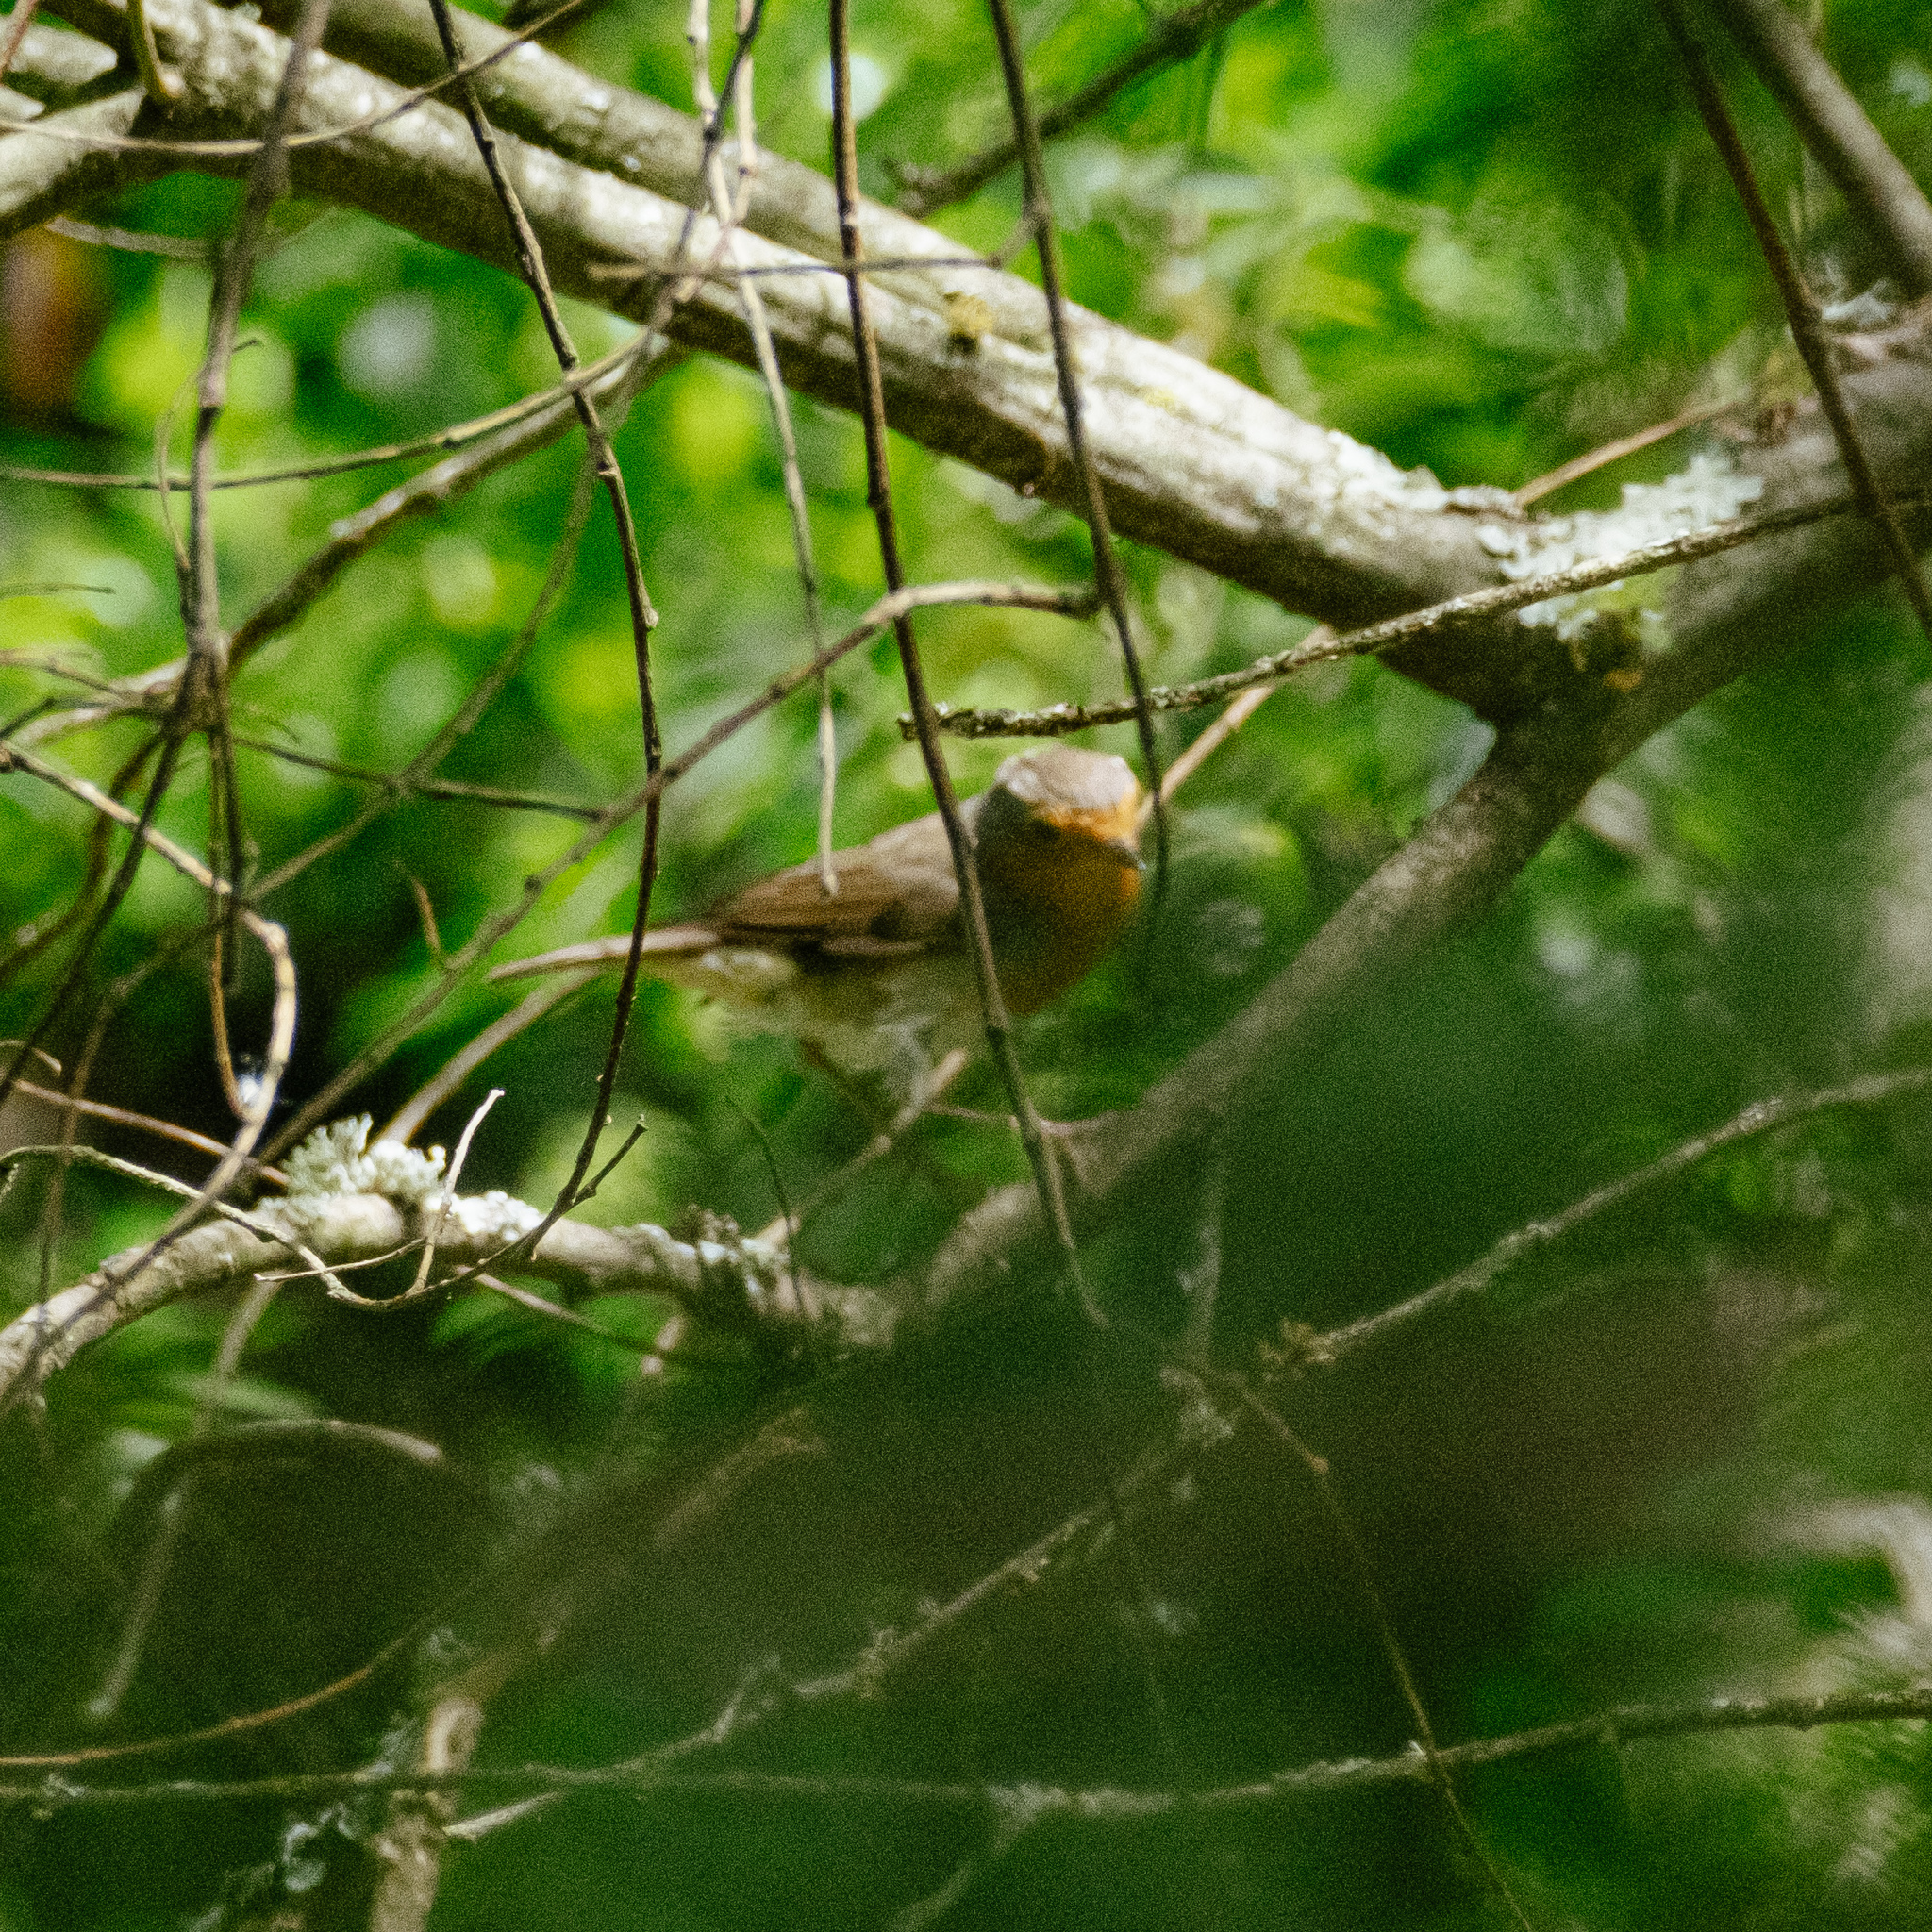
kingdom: Animalia
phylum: Chordata
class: Aves
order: Passeriformes
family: Muscicapidae
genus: Erithacus
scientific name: Erithacus rubecula
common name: European robin
